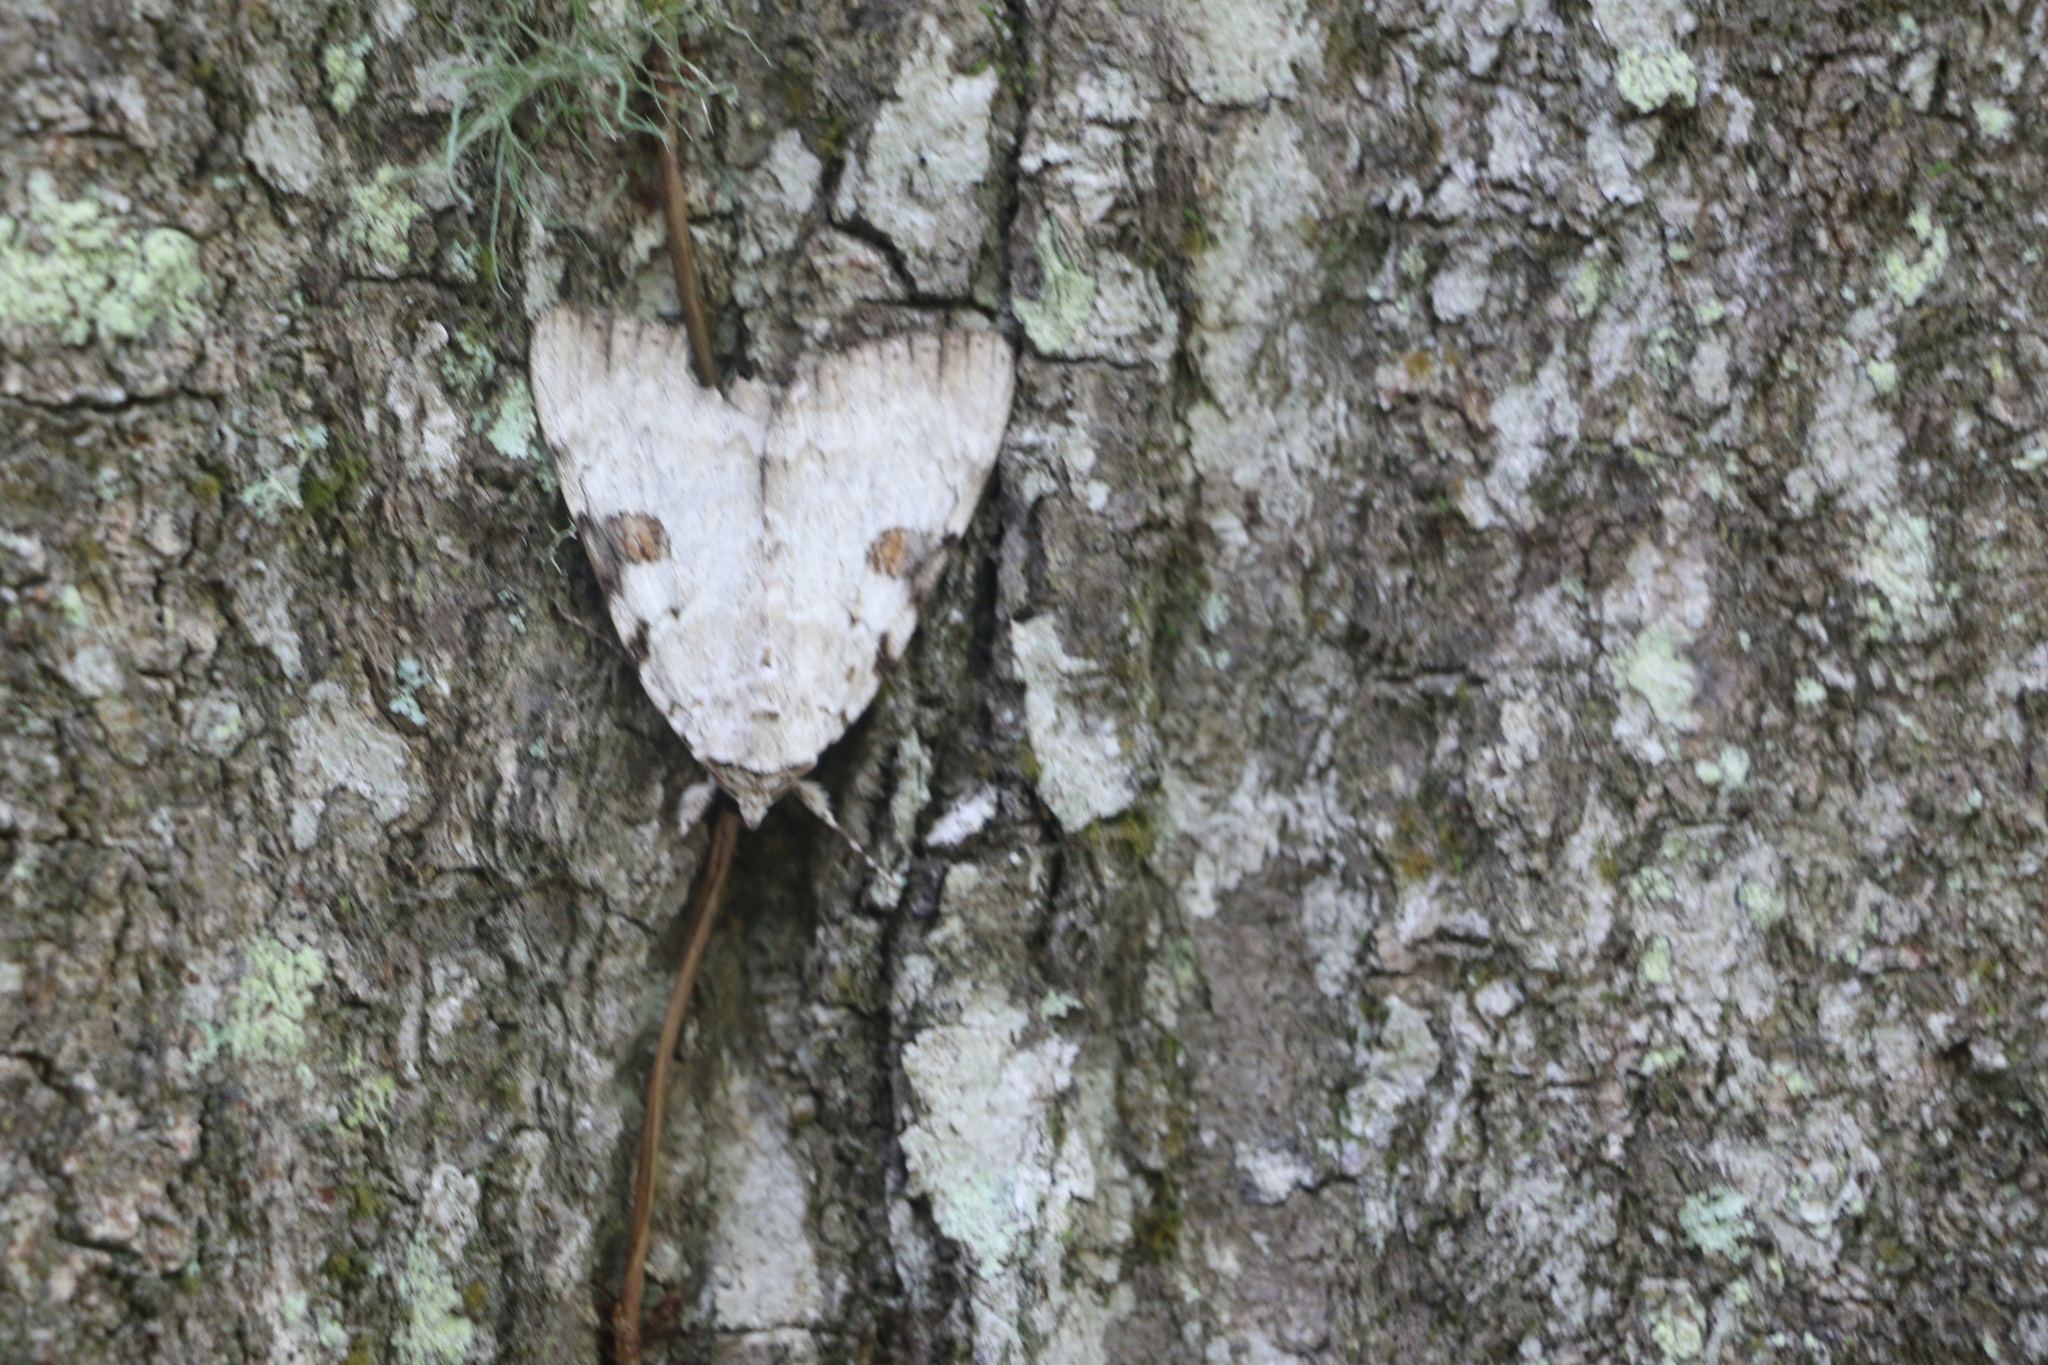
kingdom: Animalia
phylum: Arthropoda
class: Insecta
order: Lepidoptera
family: Erebidae
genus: Catocala
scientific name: Catocala sappho
